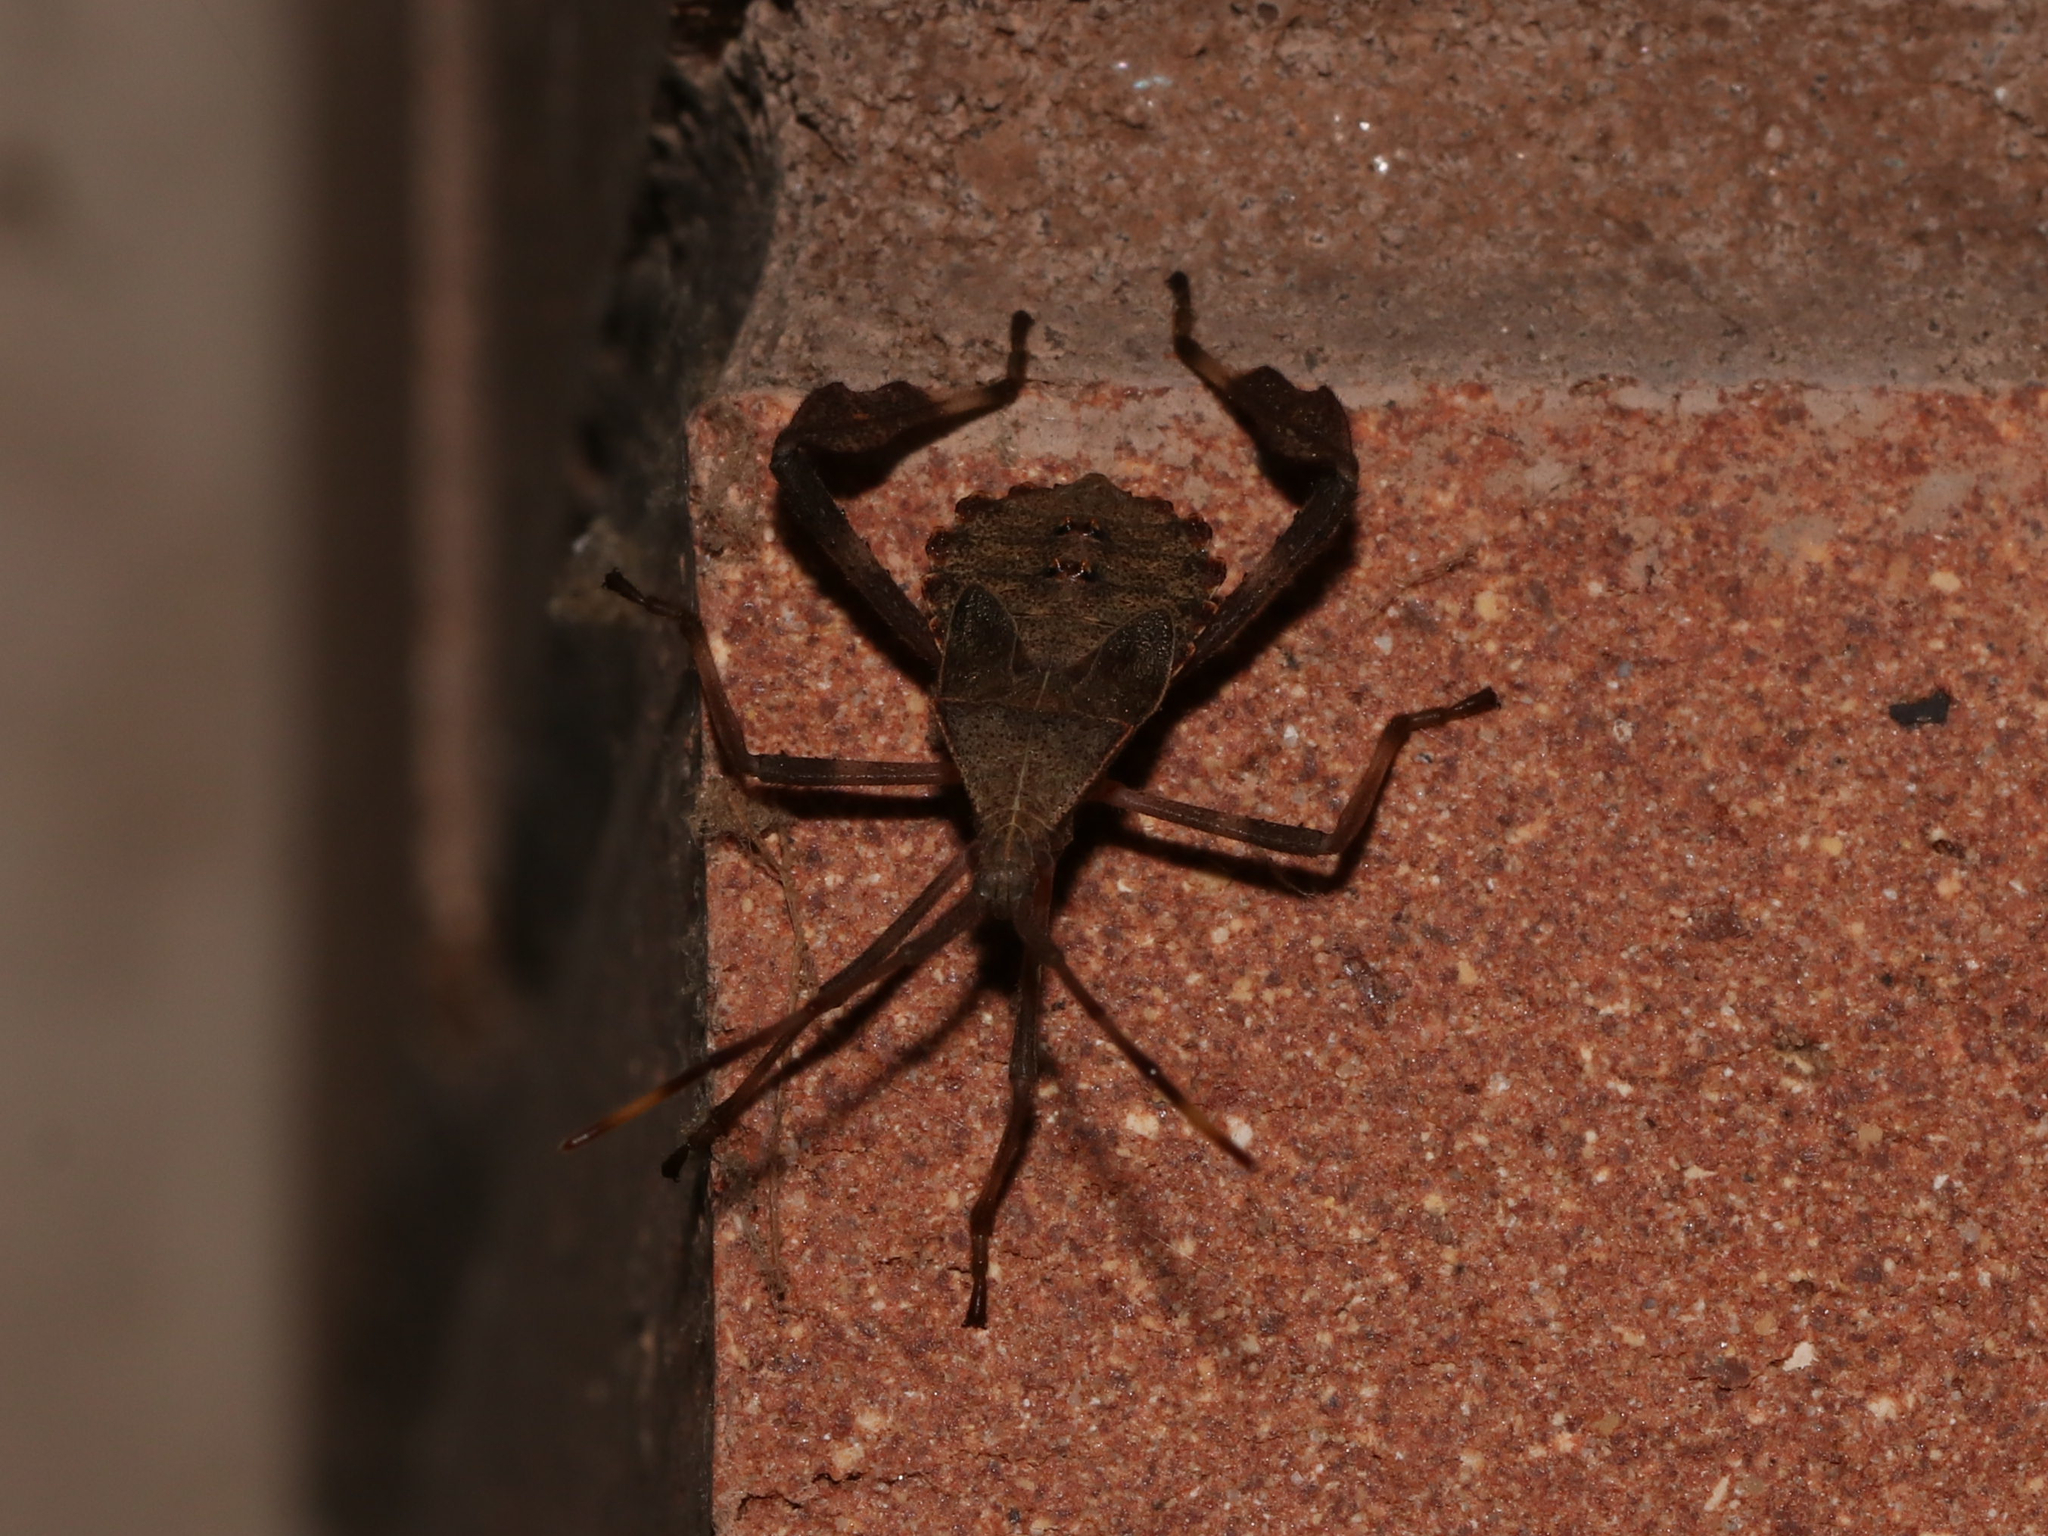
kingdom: Animalia
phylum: Arthropoda
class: Insecta
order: Hemiptera
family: Coreidae
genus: Acanthocephala
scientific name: Acanthocephala terminalis
